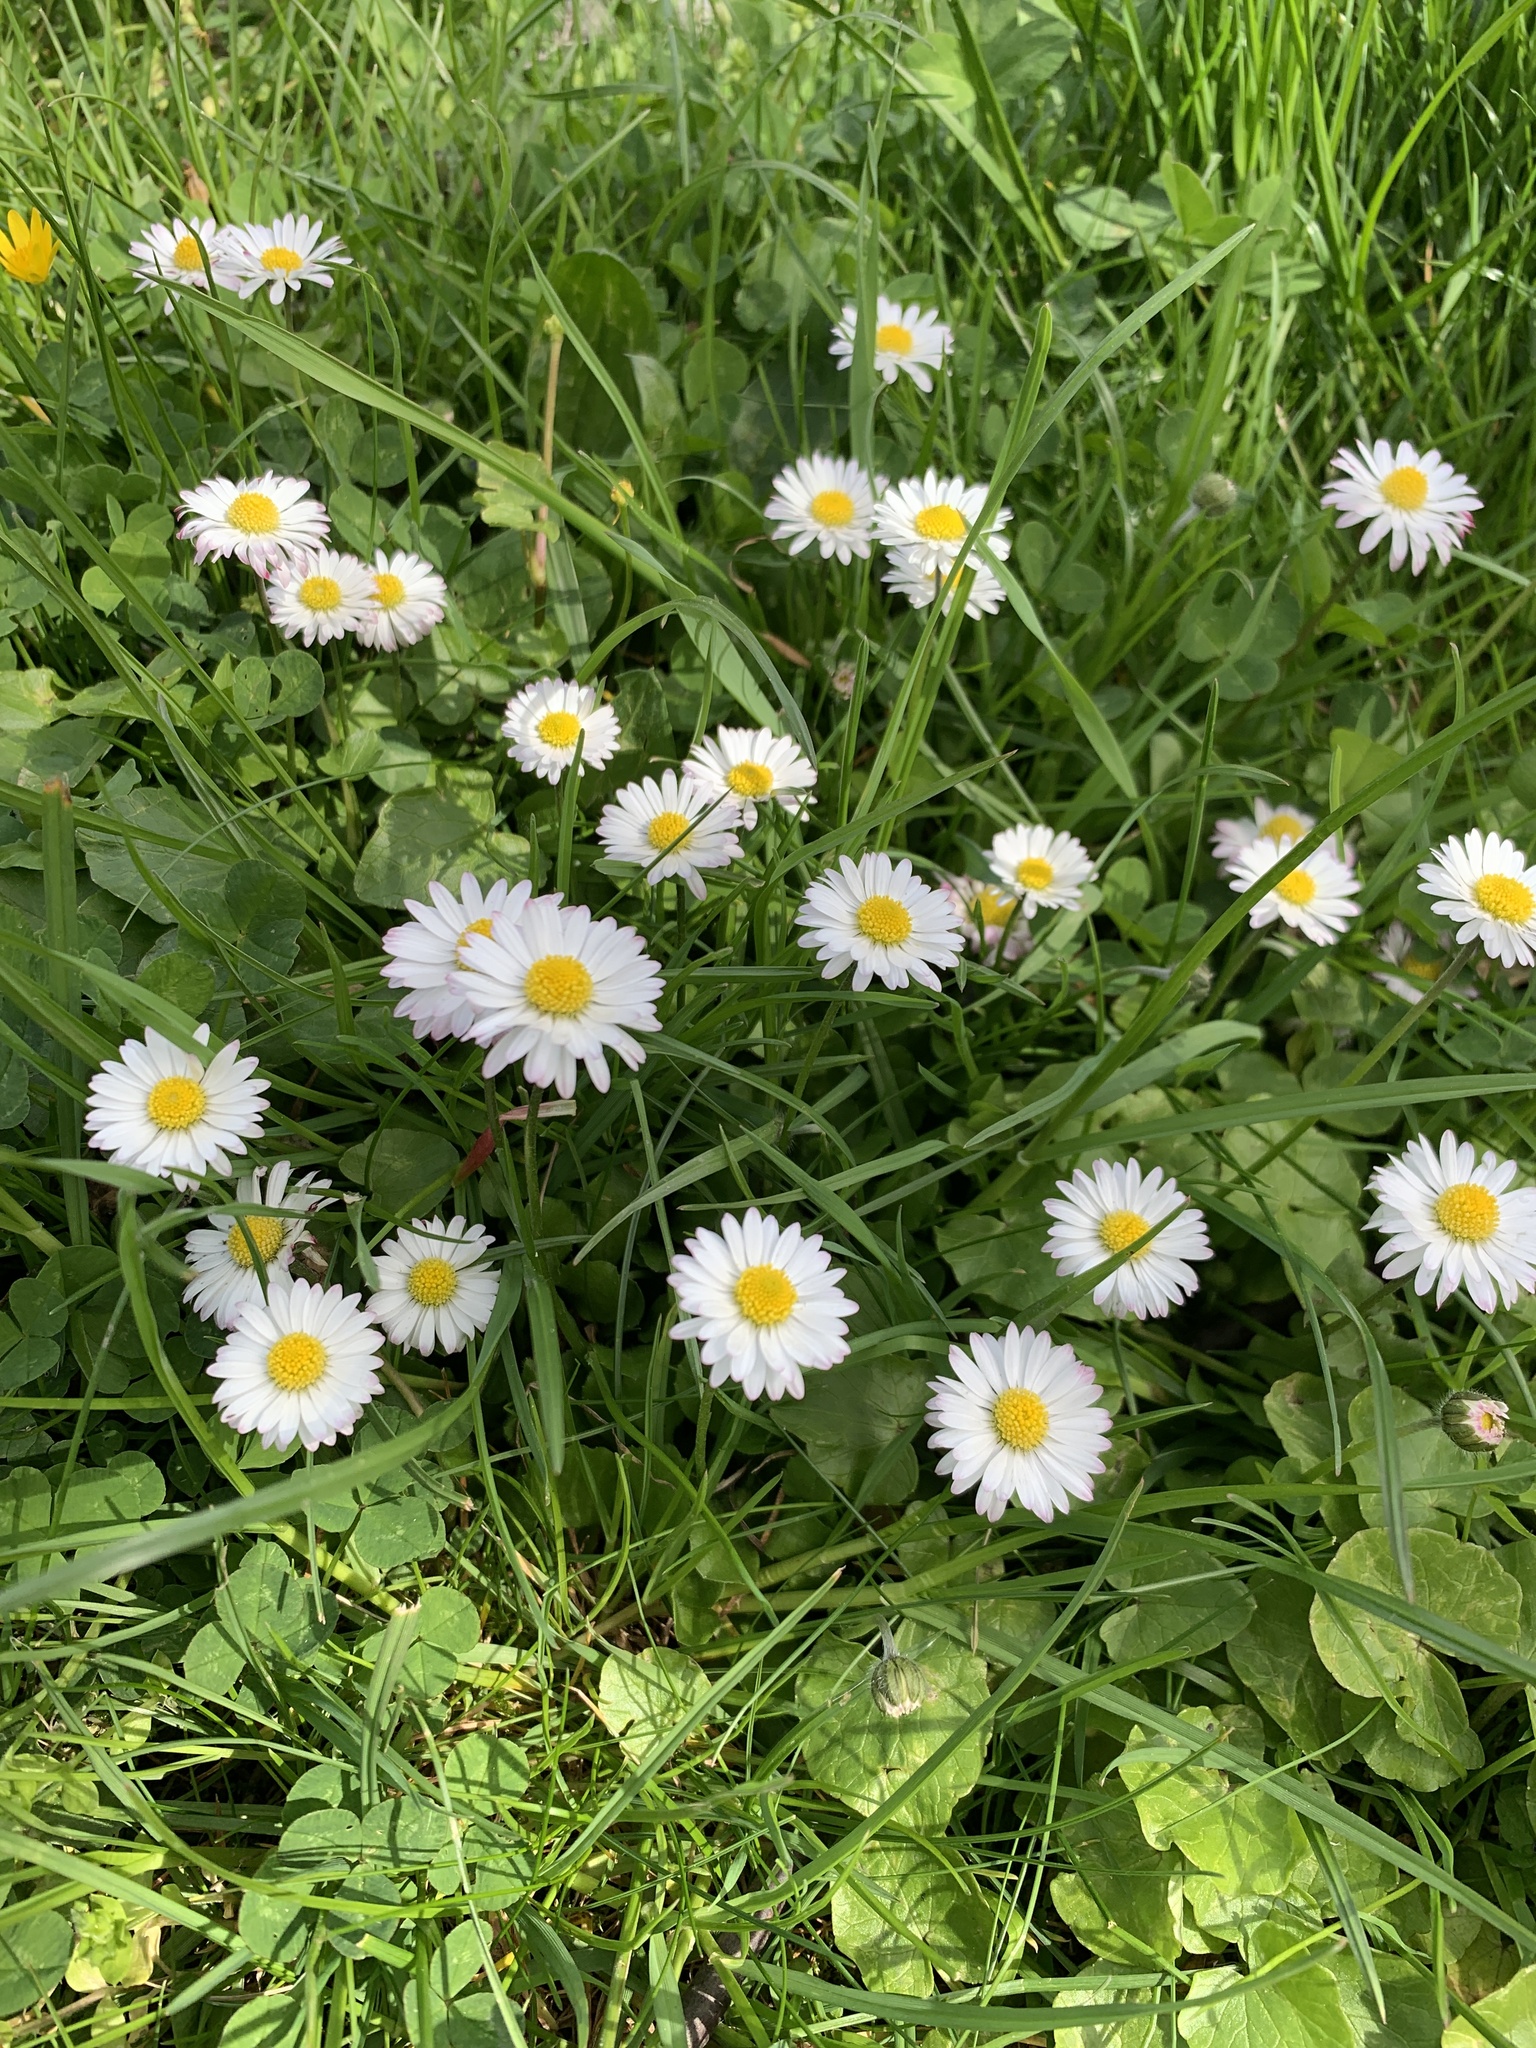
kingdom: Plantae
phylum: Tracheophyta
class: Magnoliopsida
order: Asterales
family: Asteraceae
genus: Bellis
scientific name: Bellis perennis
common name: Lawndaisy
